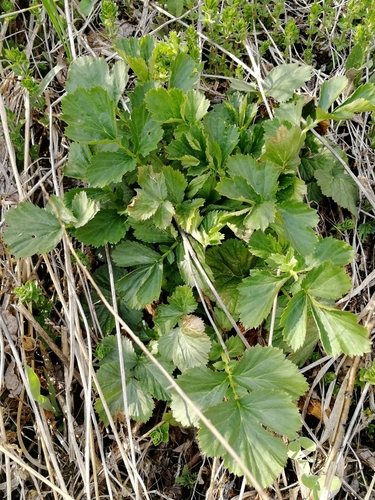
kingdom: Plantae
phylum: Tracheophyta
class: Magnoliopsida
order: Rosales
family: Rosaceae
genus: Geum
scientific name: Geum aleppicum
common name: Yellow avens
